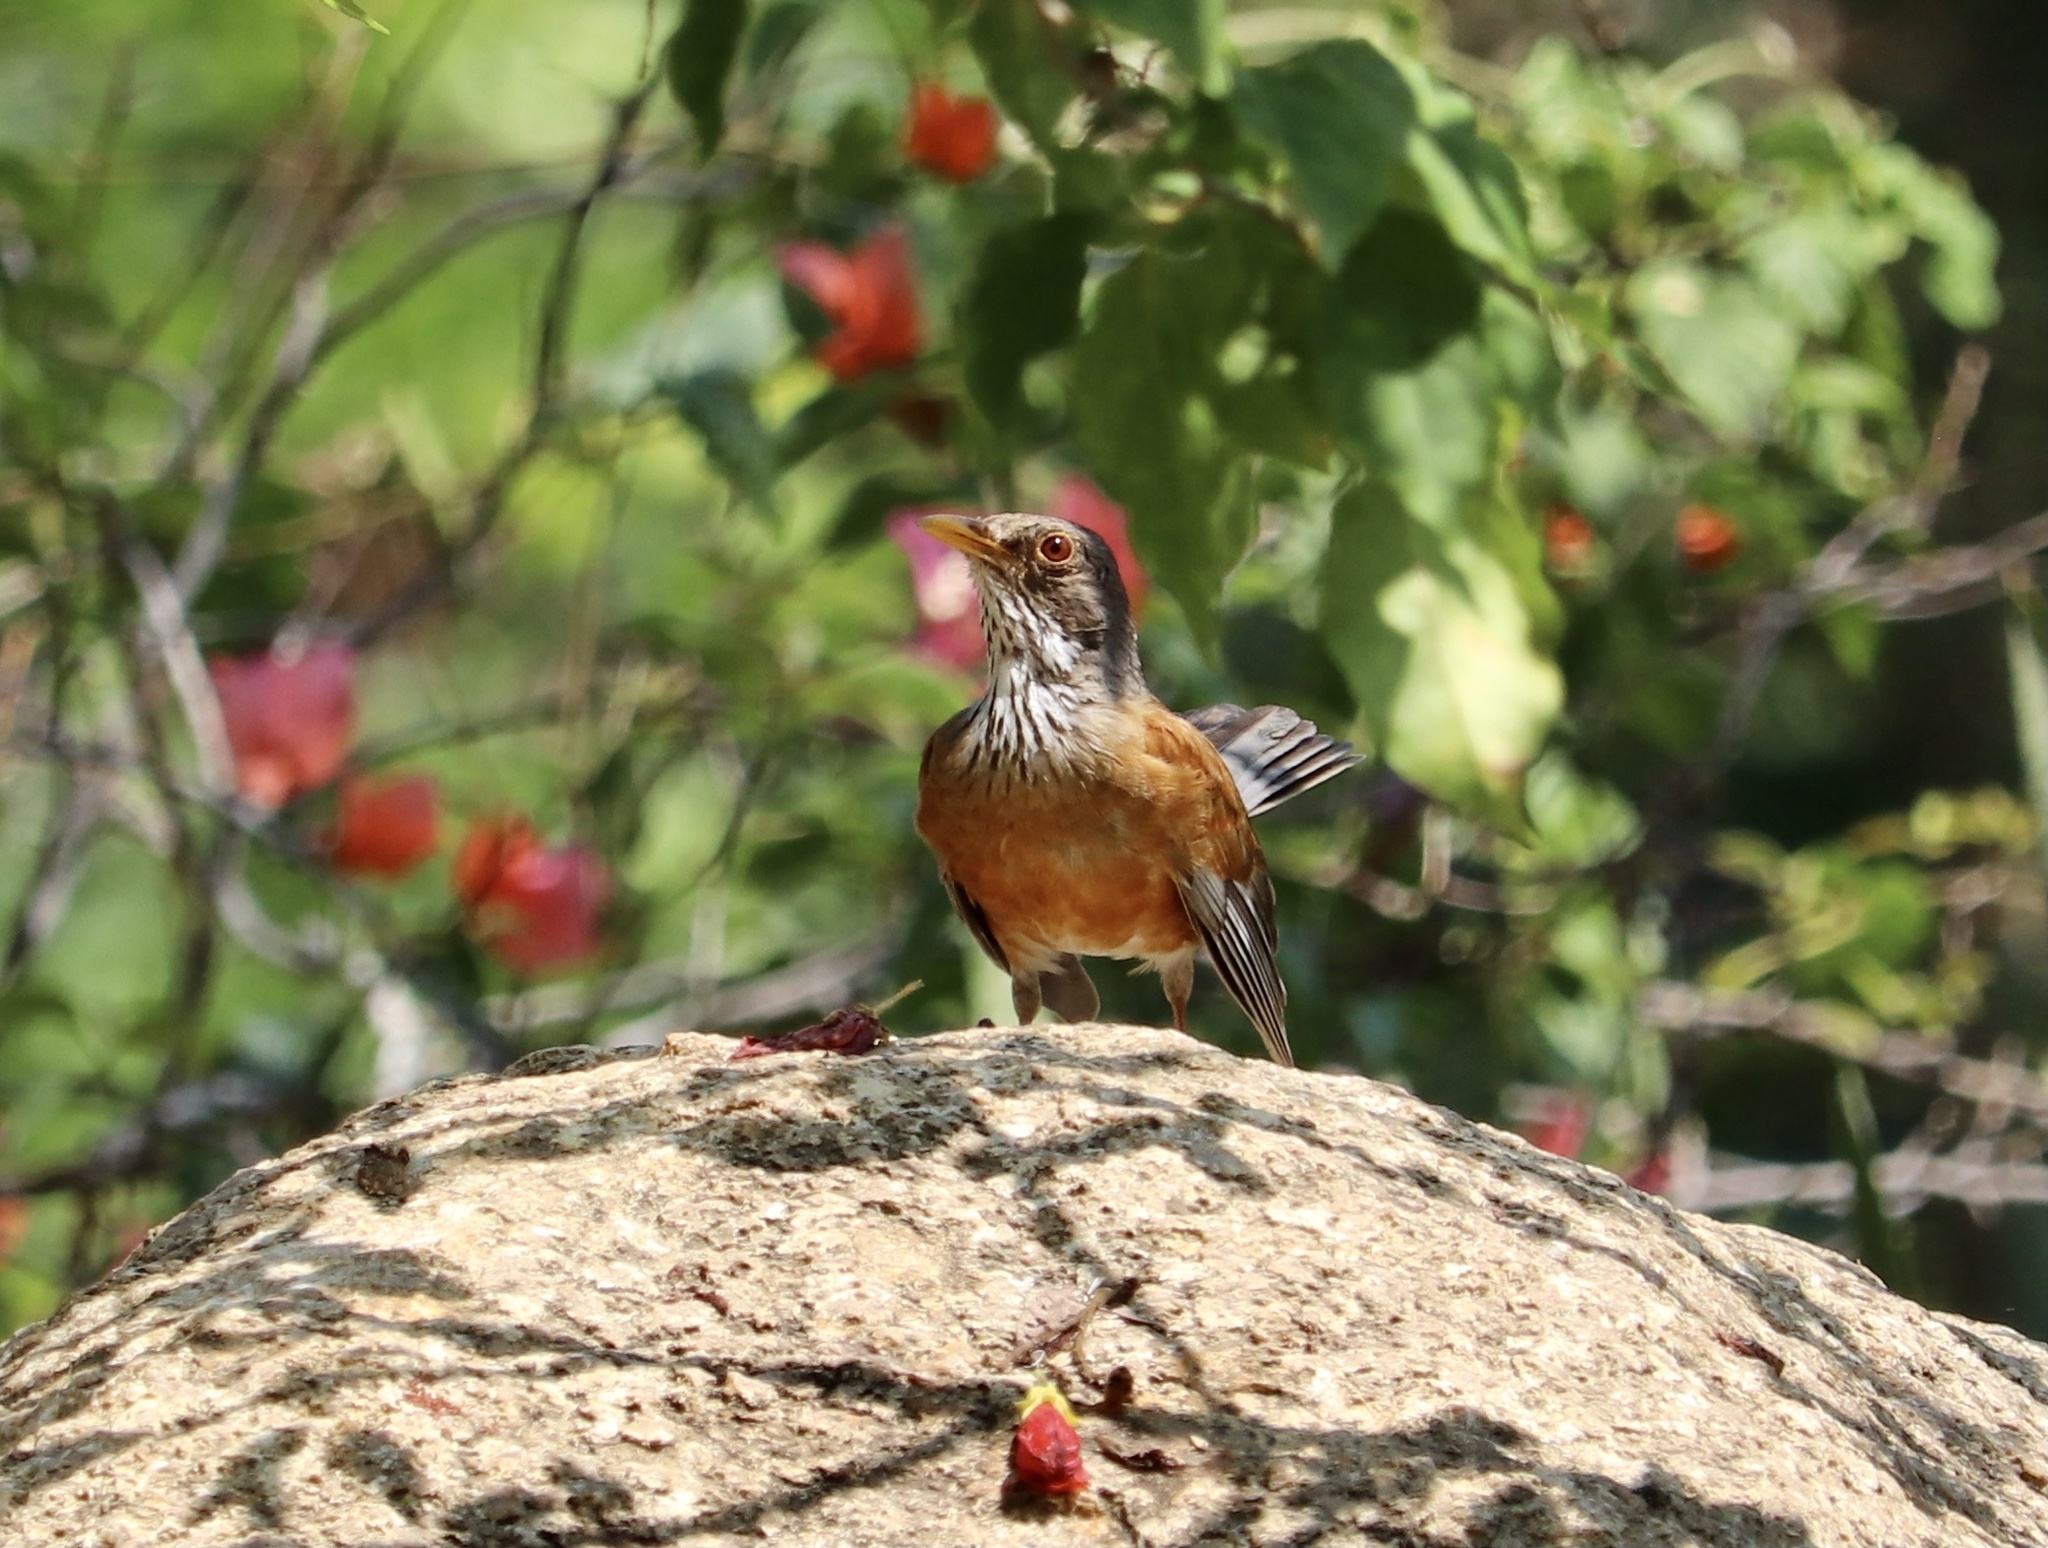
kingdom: Animalia
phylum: Chordata
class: Aves
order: Passeriformes
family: Turdidae
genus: Turdus
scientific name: Turdus rufopalliatus
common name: Rufous-backed robin
